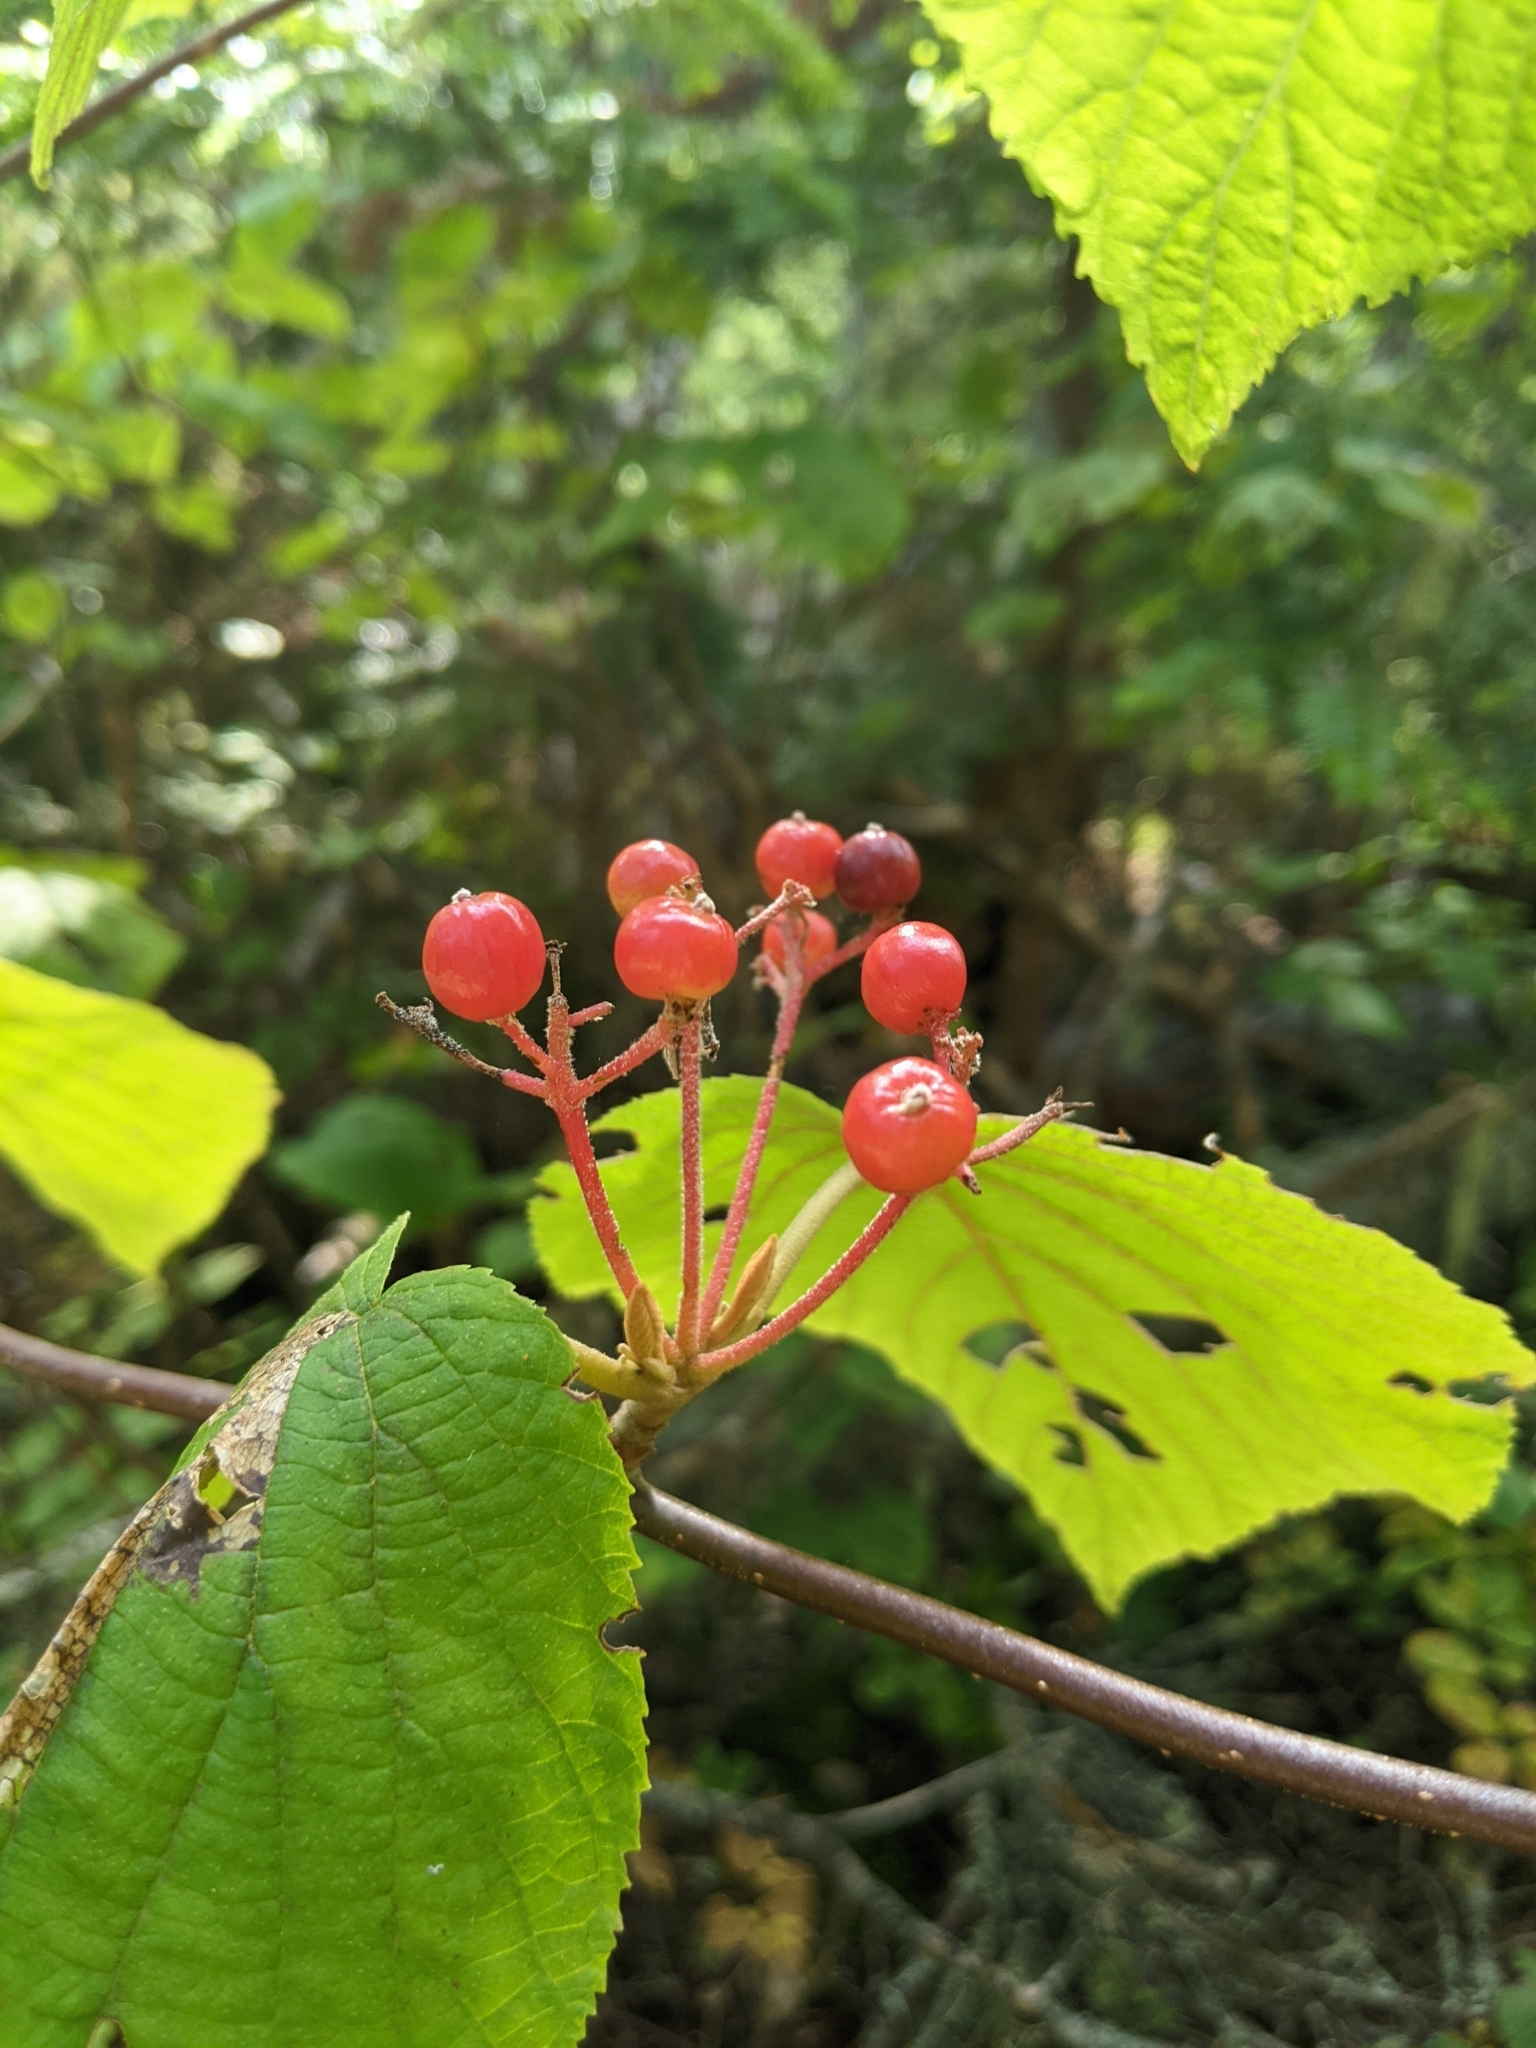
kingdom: Plantae
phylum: Tracheophyta
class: Magnoliopsida
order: Dipsacales
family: Viburnaceae
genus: Viburnum
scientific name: Viburnum lantanoides
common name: Hobblebush
